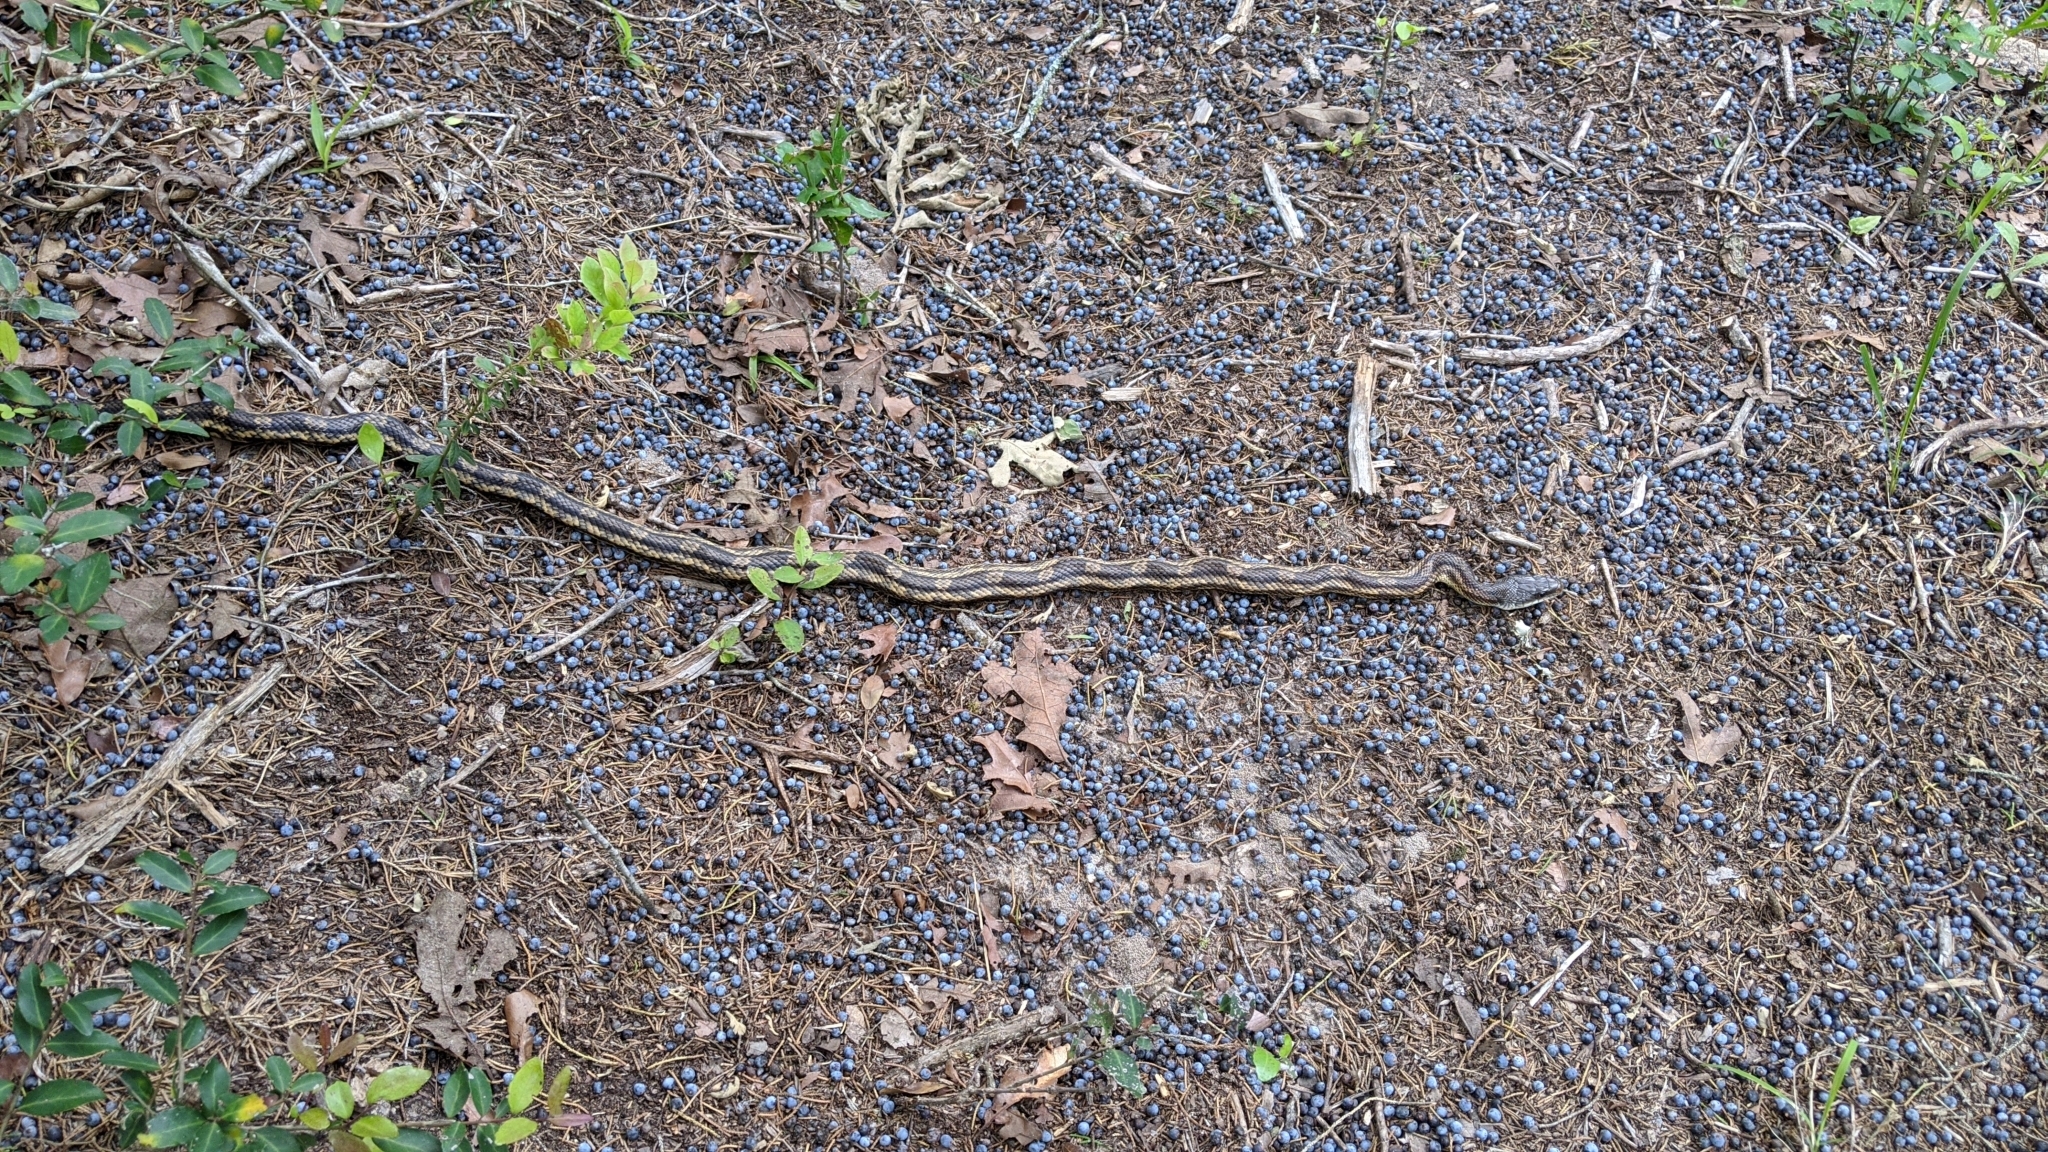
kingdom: Animalia
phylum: Chordata
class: Squamata
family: Colubridae
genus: Pantherophis
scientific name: Pantherophis obsoletus
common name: Black rat snake
